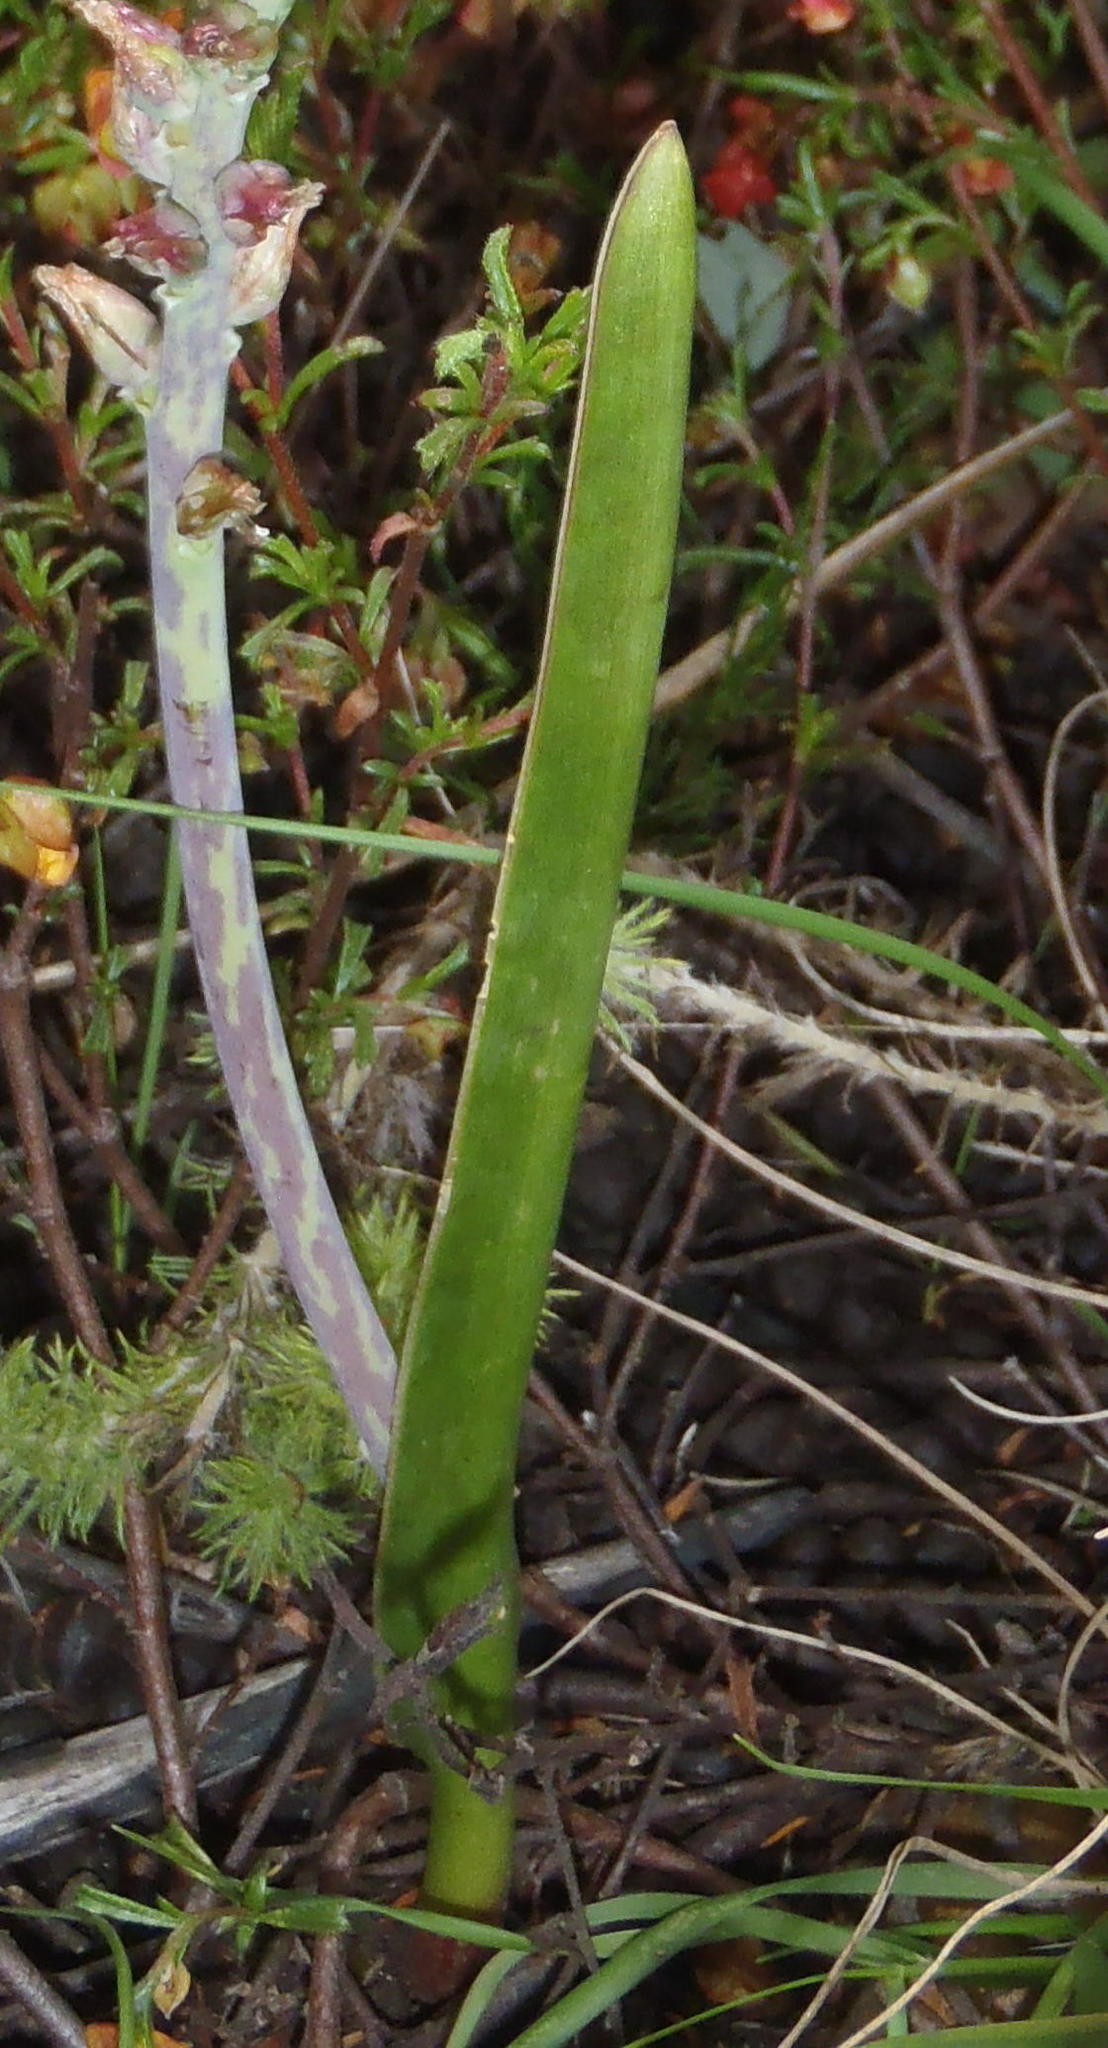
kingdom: Plantae
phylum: Tracheophyta
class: Liliopsida
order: Asparagales
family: Asparagaceae
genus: Lachenalia
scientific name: Lachenalia judithiae
